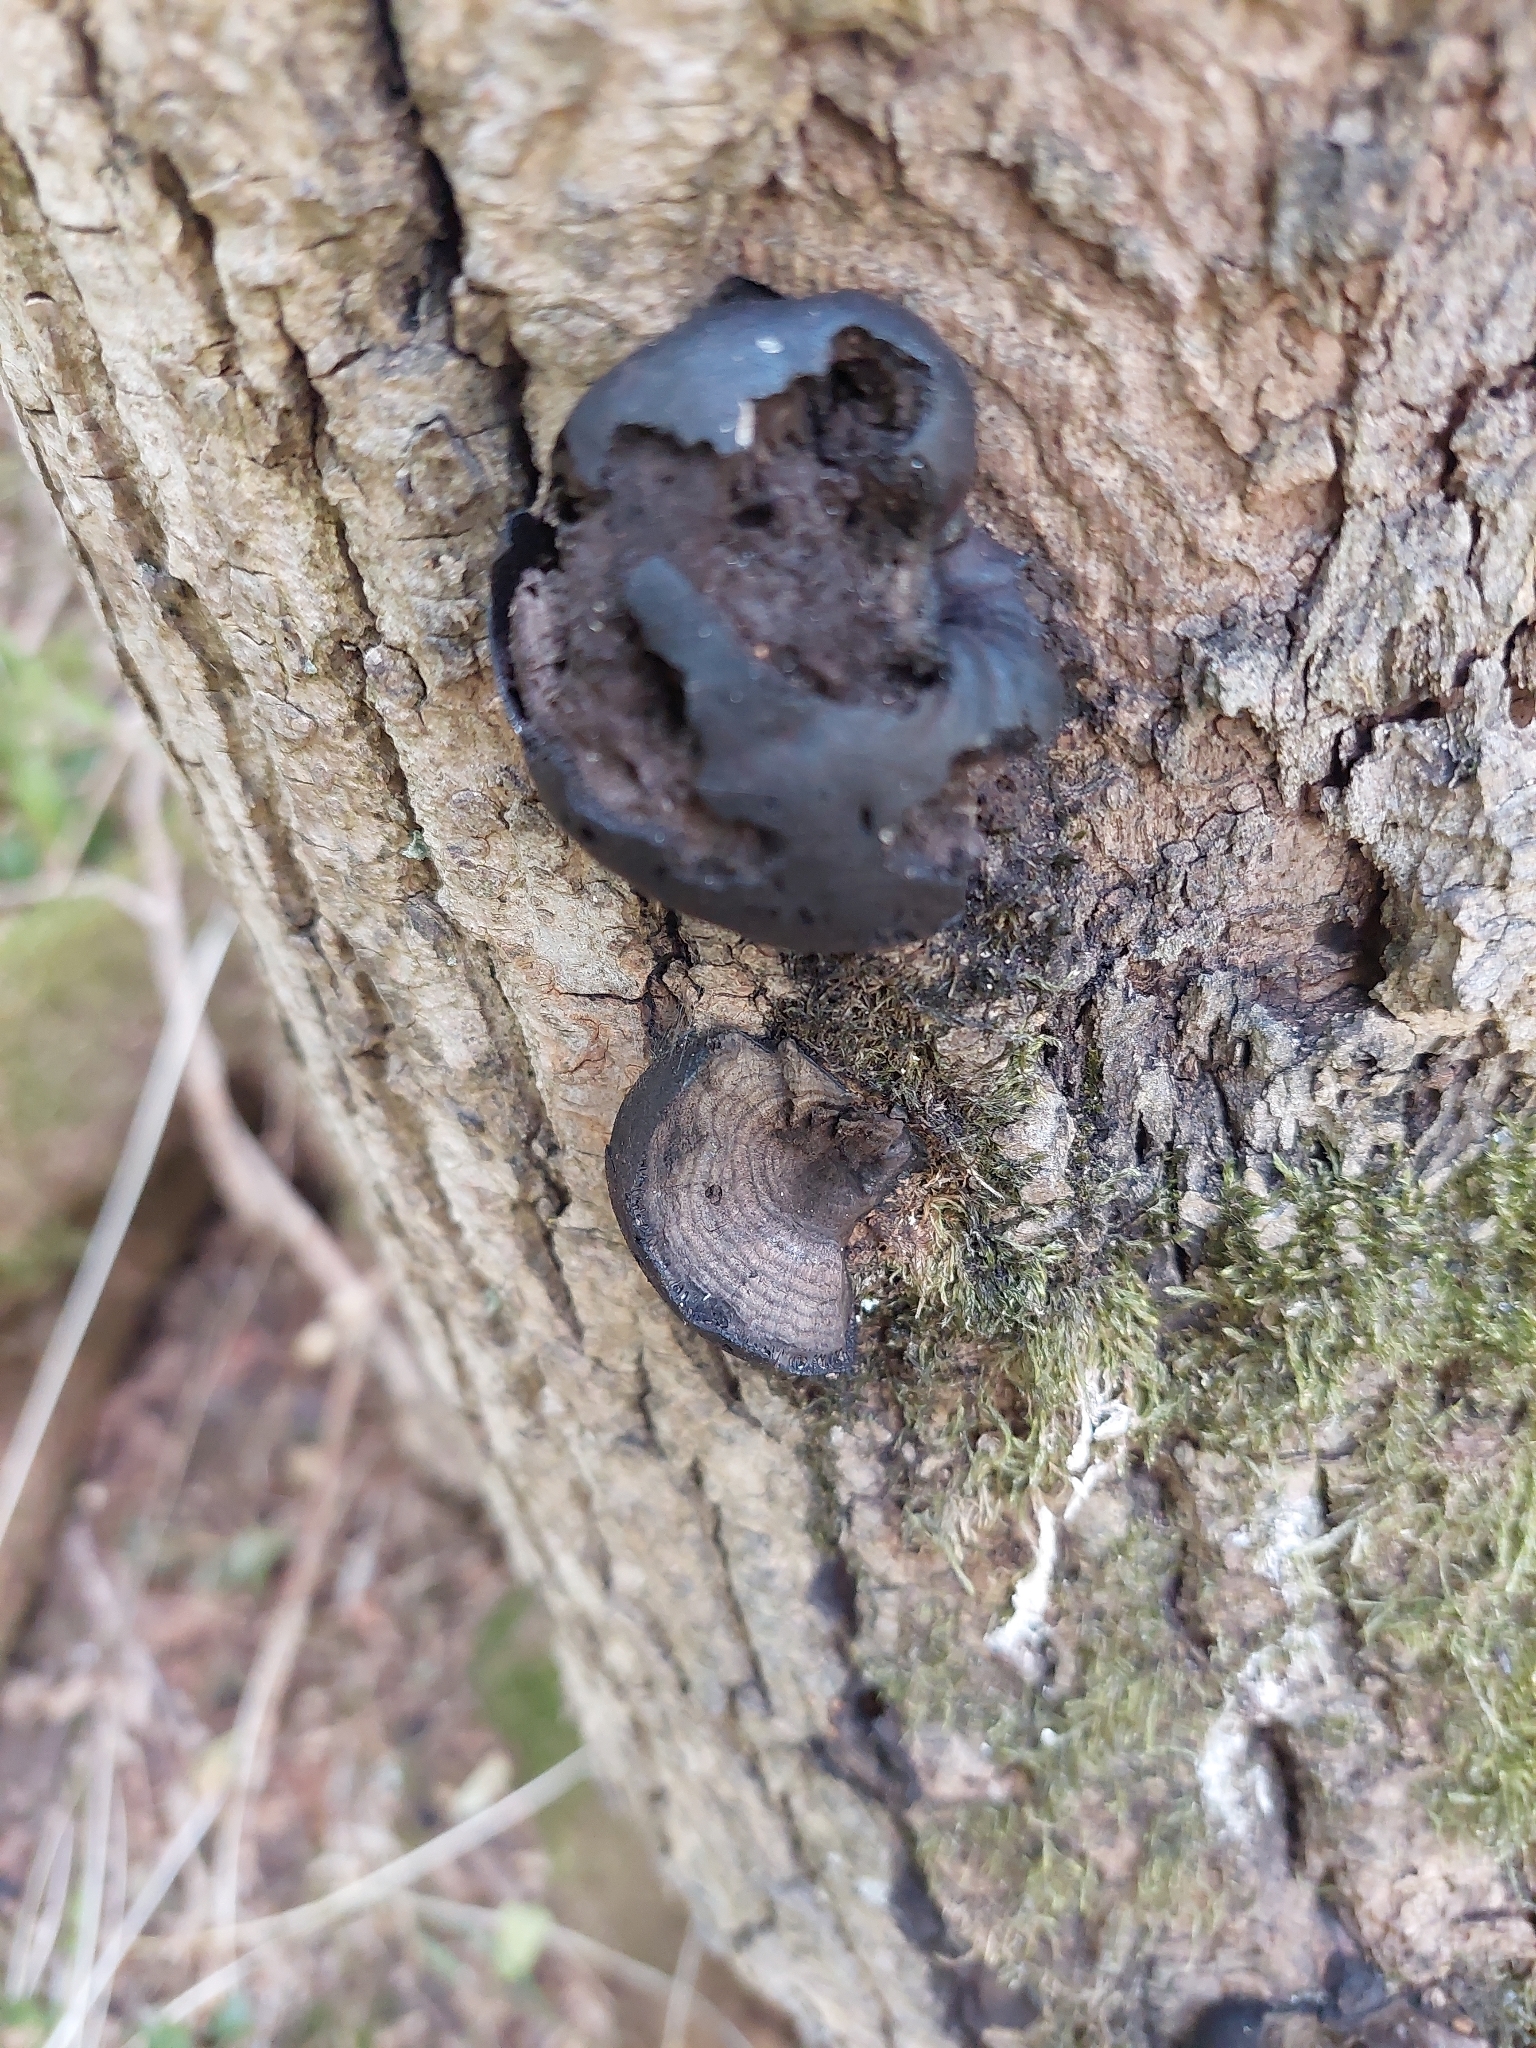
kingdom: Fungi
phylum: Ascomycota
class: Sordariomycetes
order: Xylariales
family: Hypoxylaceae
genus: Daldinia
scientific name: Daldinia concentrica
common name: Cramp balls
